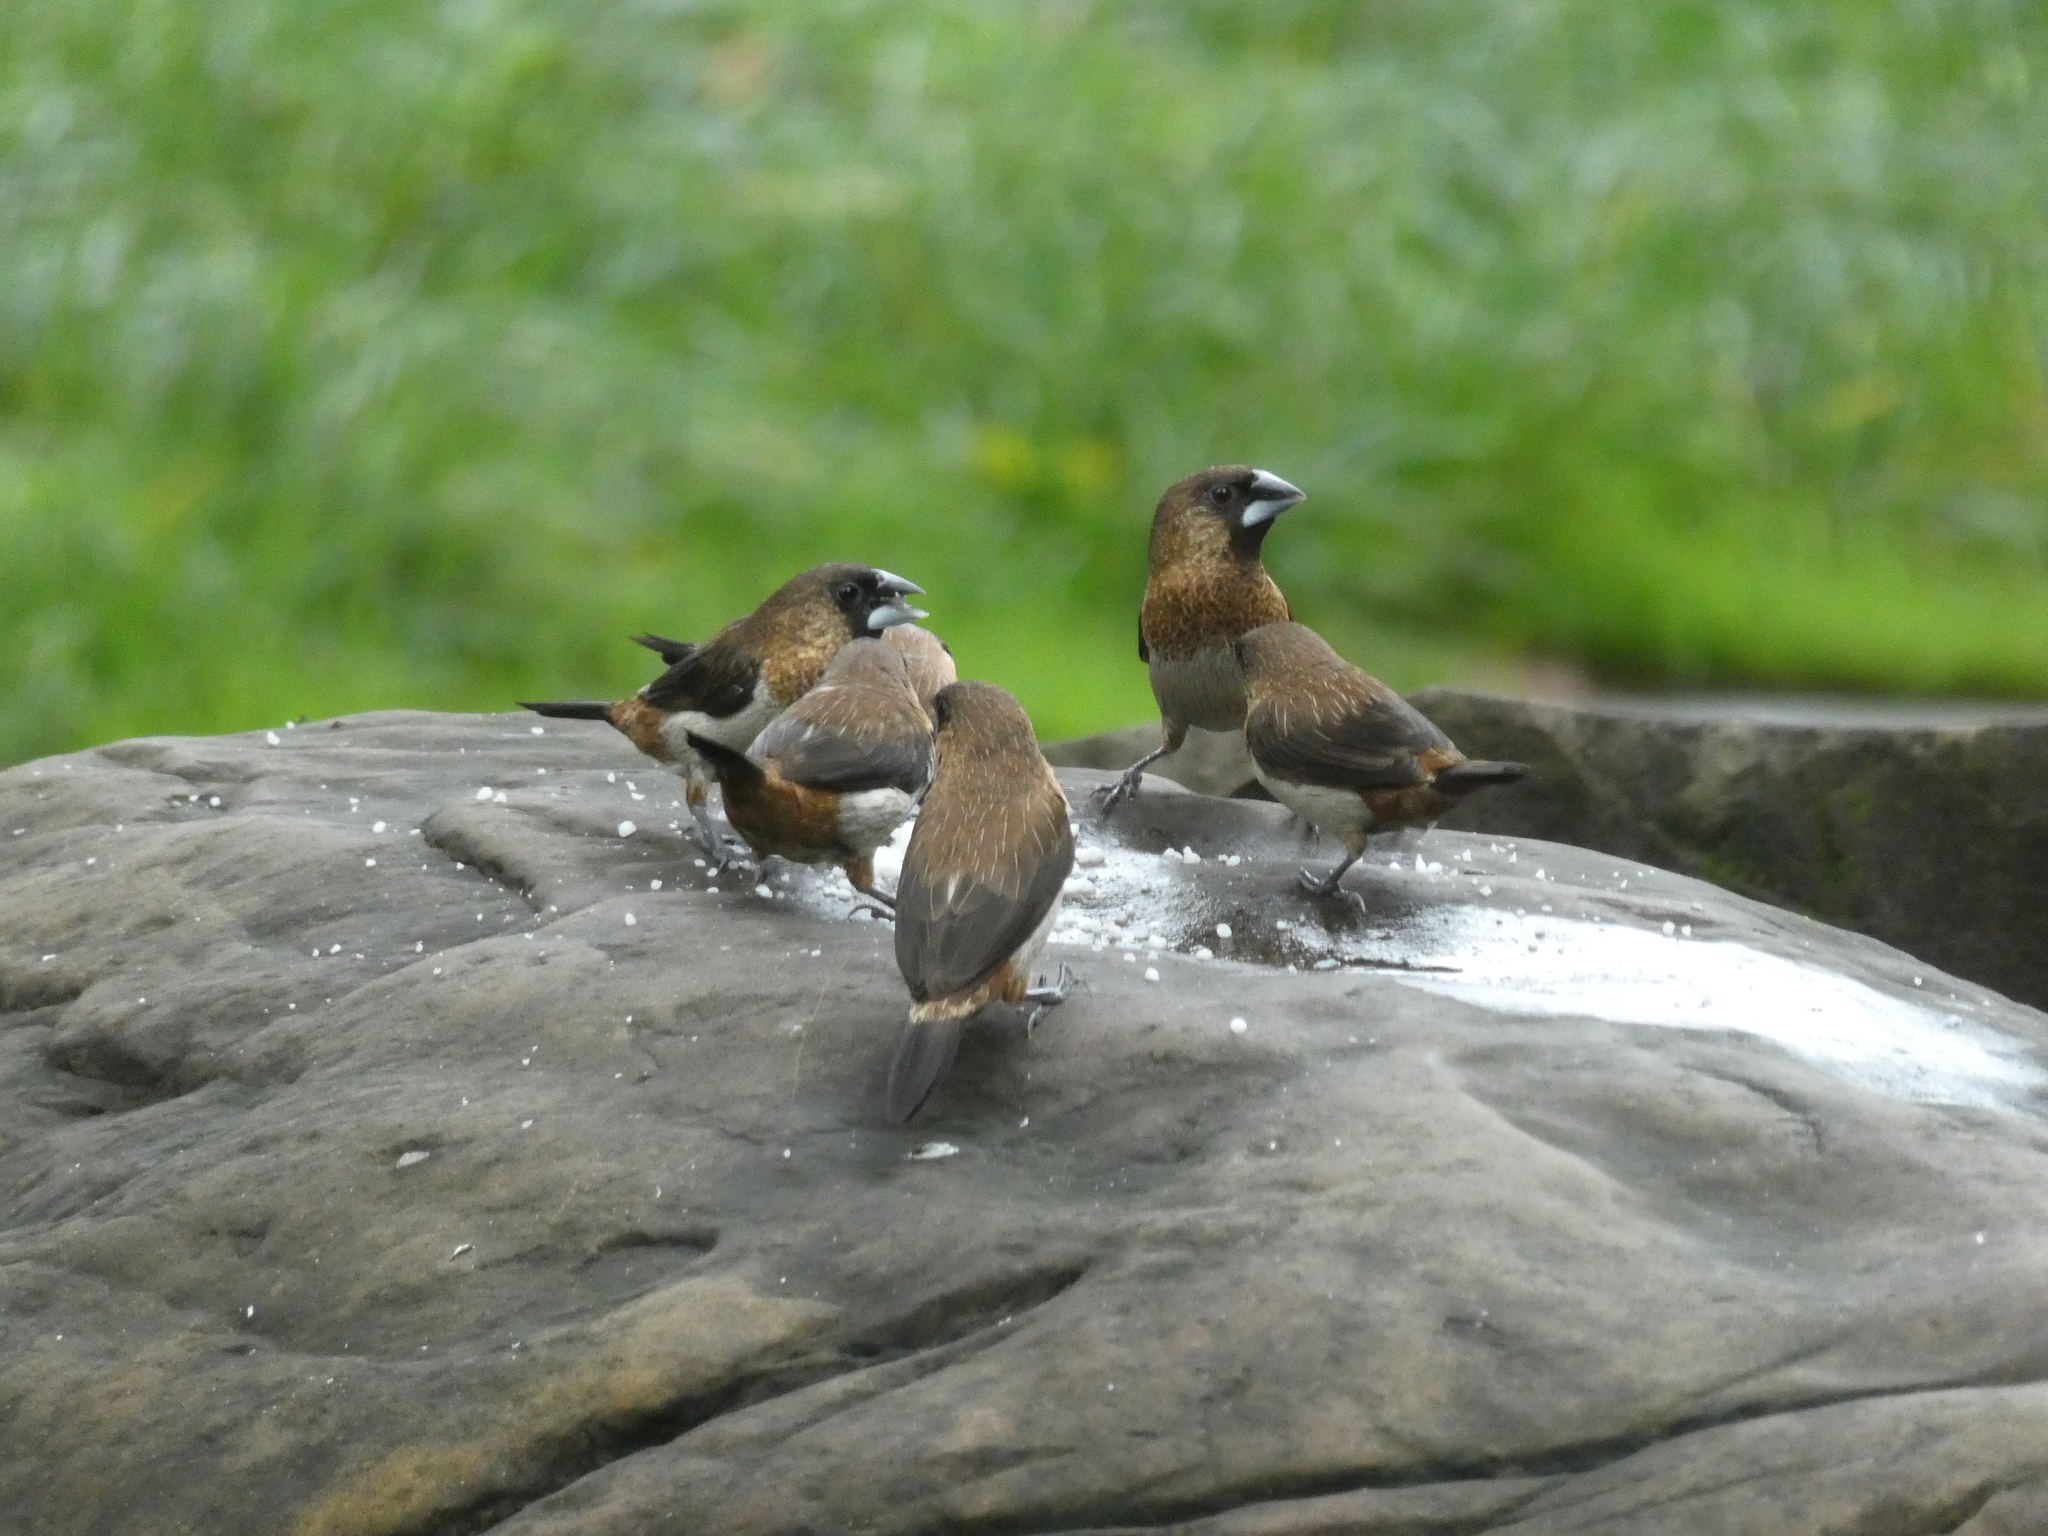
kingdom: Animalia
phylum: Chordata
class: Aves
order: Passeriformes
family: Estrildidae
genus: Lonchura
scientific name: Lonchura striata
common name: White-rumped munia
